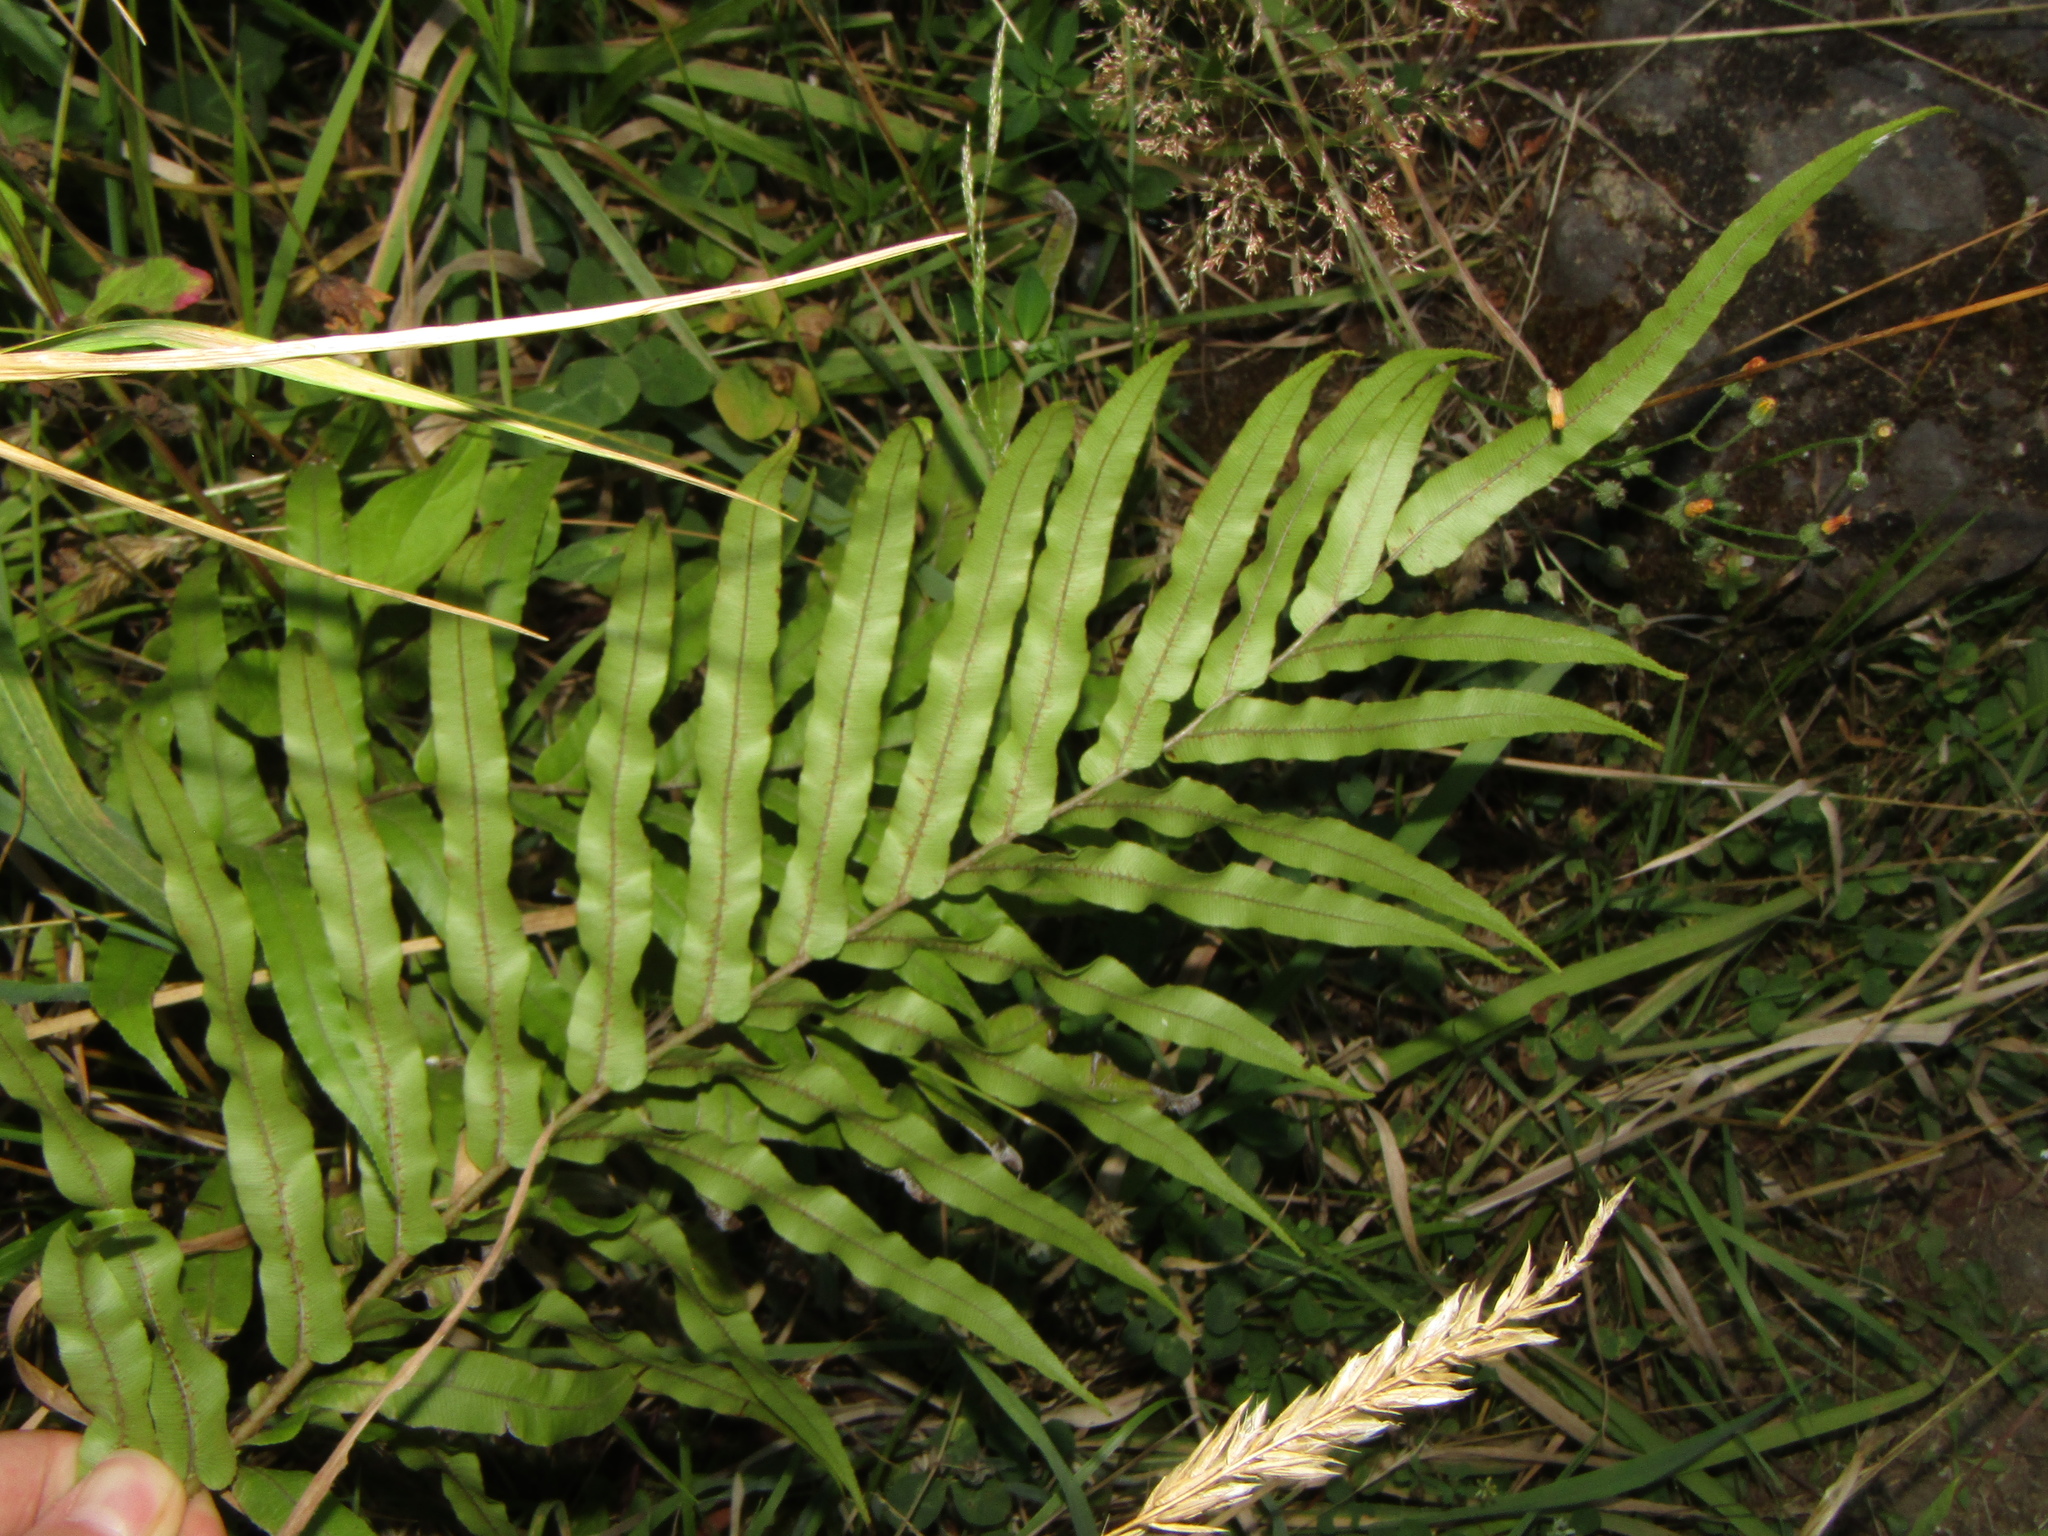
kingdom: Plantae
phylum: Tracheophyta
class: Polypodiopsida
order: Polypodiales
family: Blechnaceae
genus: Parablechnum
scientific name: Parablechnum minus
